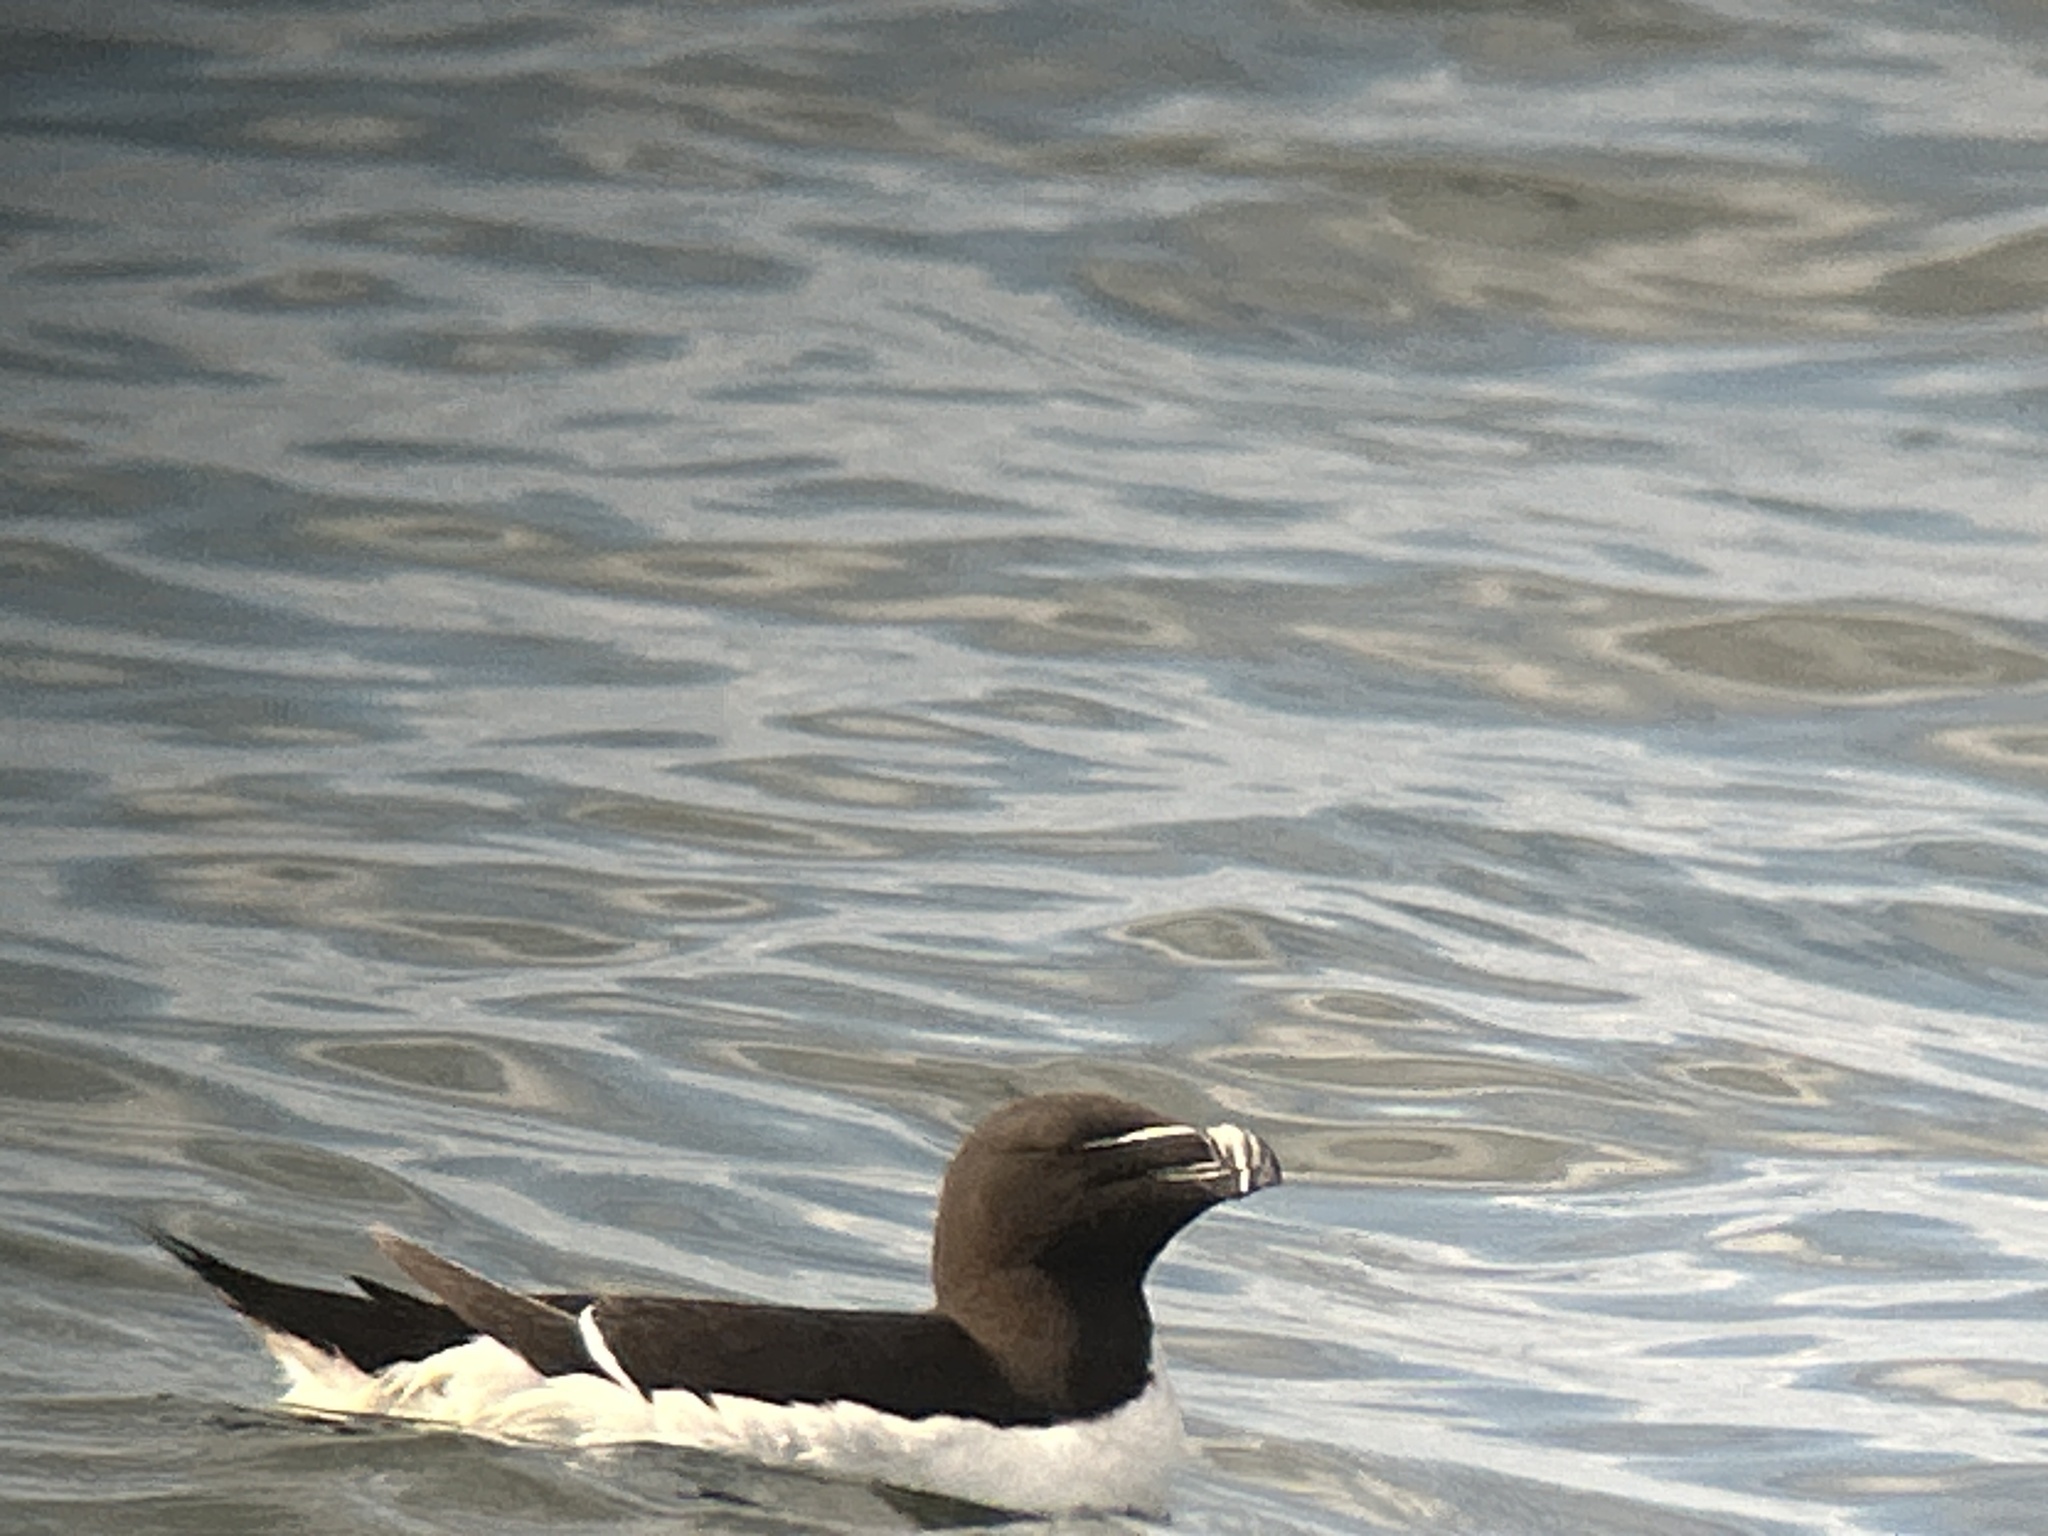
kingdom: Animalia
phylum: Chordata
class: Aves
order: Charadriiformes
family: Alcidae
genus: Alca
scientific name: Alca torda
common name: Razorbill
